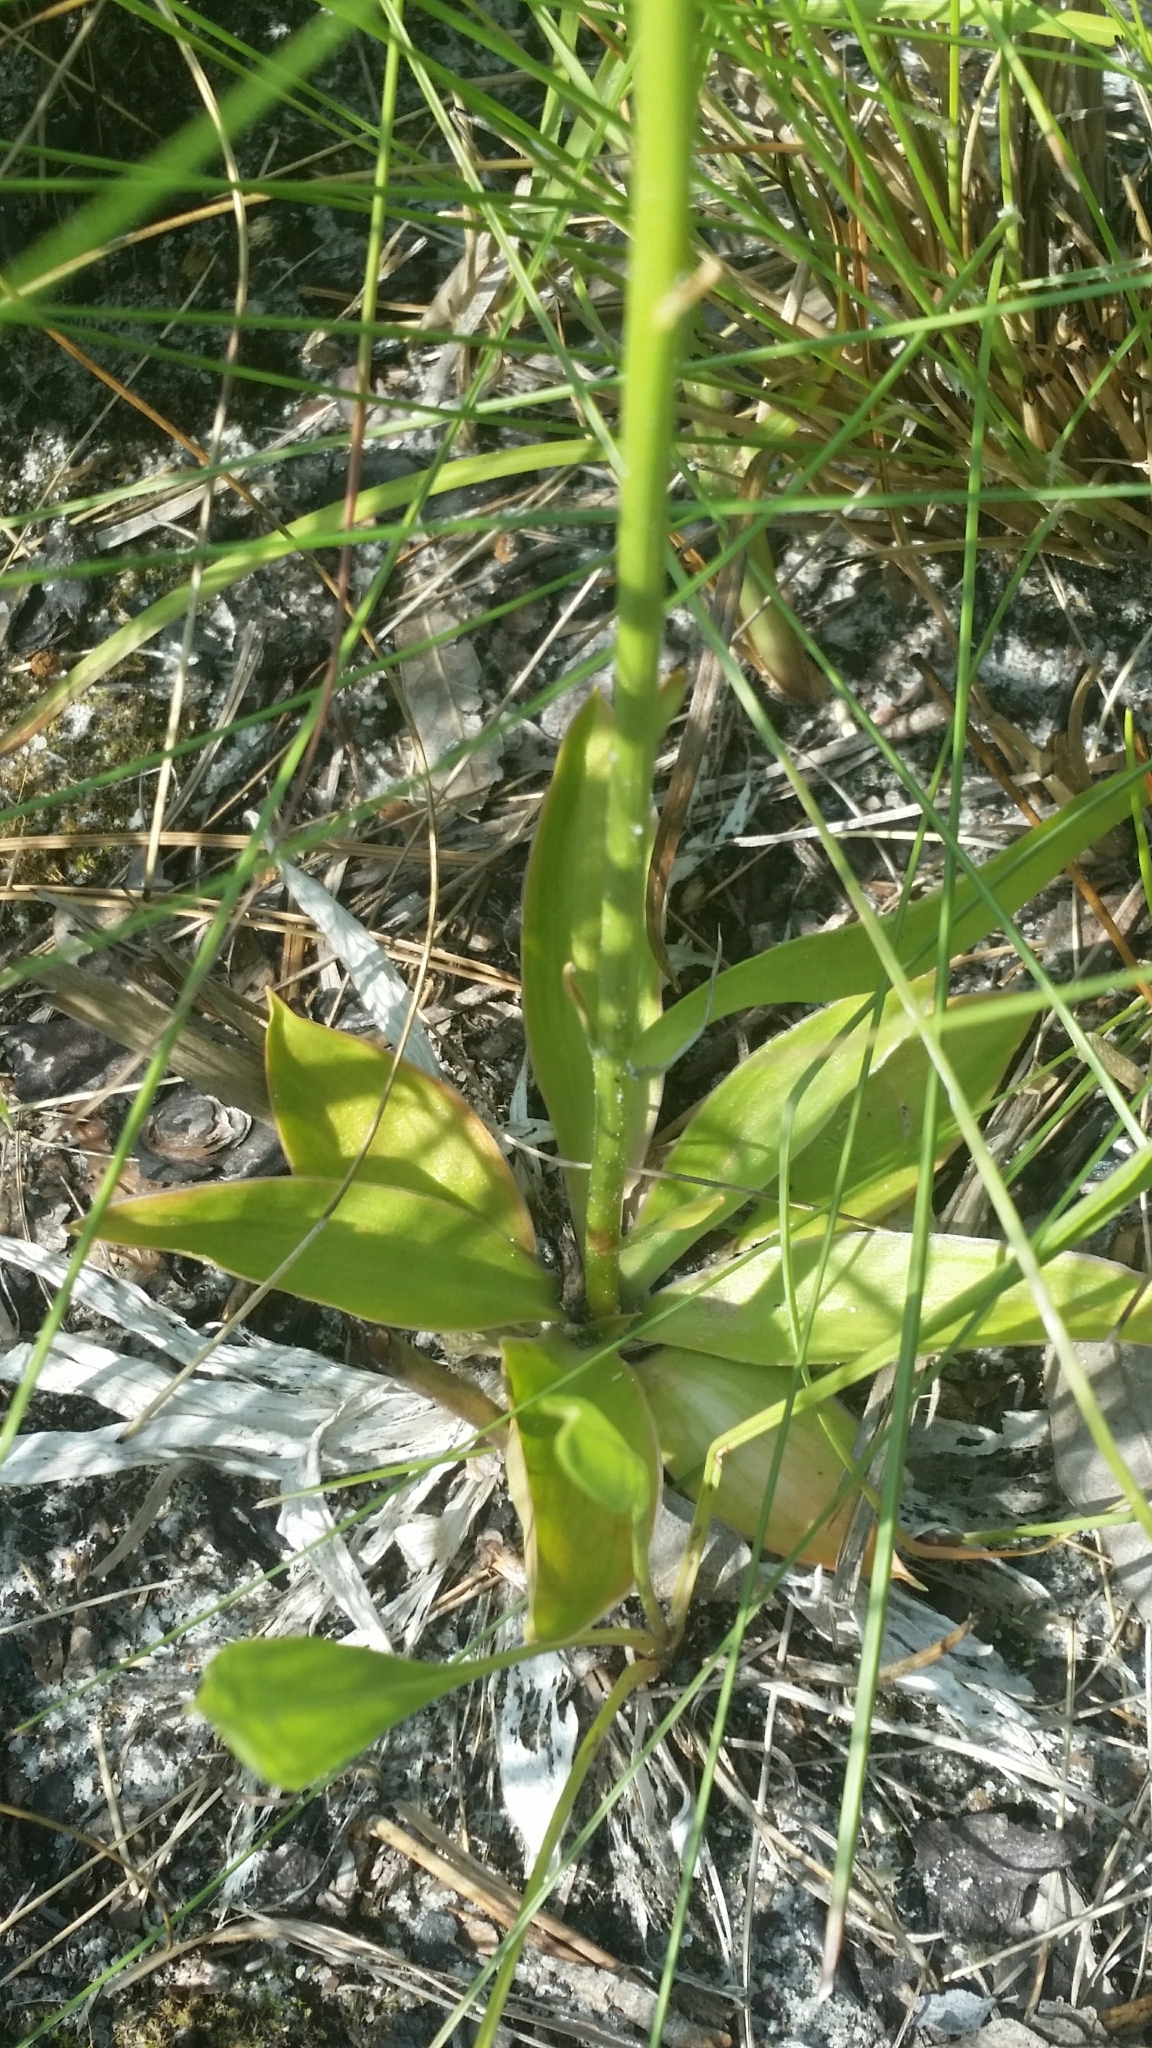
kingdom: Plantae
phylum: Tracheophyta
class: Liliopsida
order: Dioscoreales
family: Nartheciaceae
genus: Aletris
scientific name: Aletris obovata
